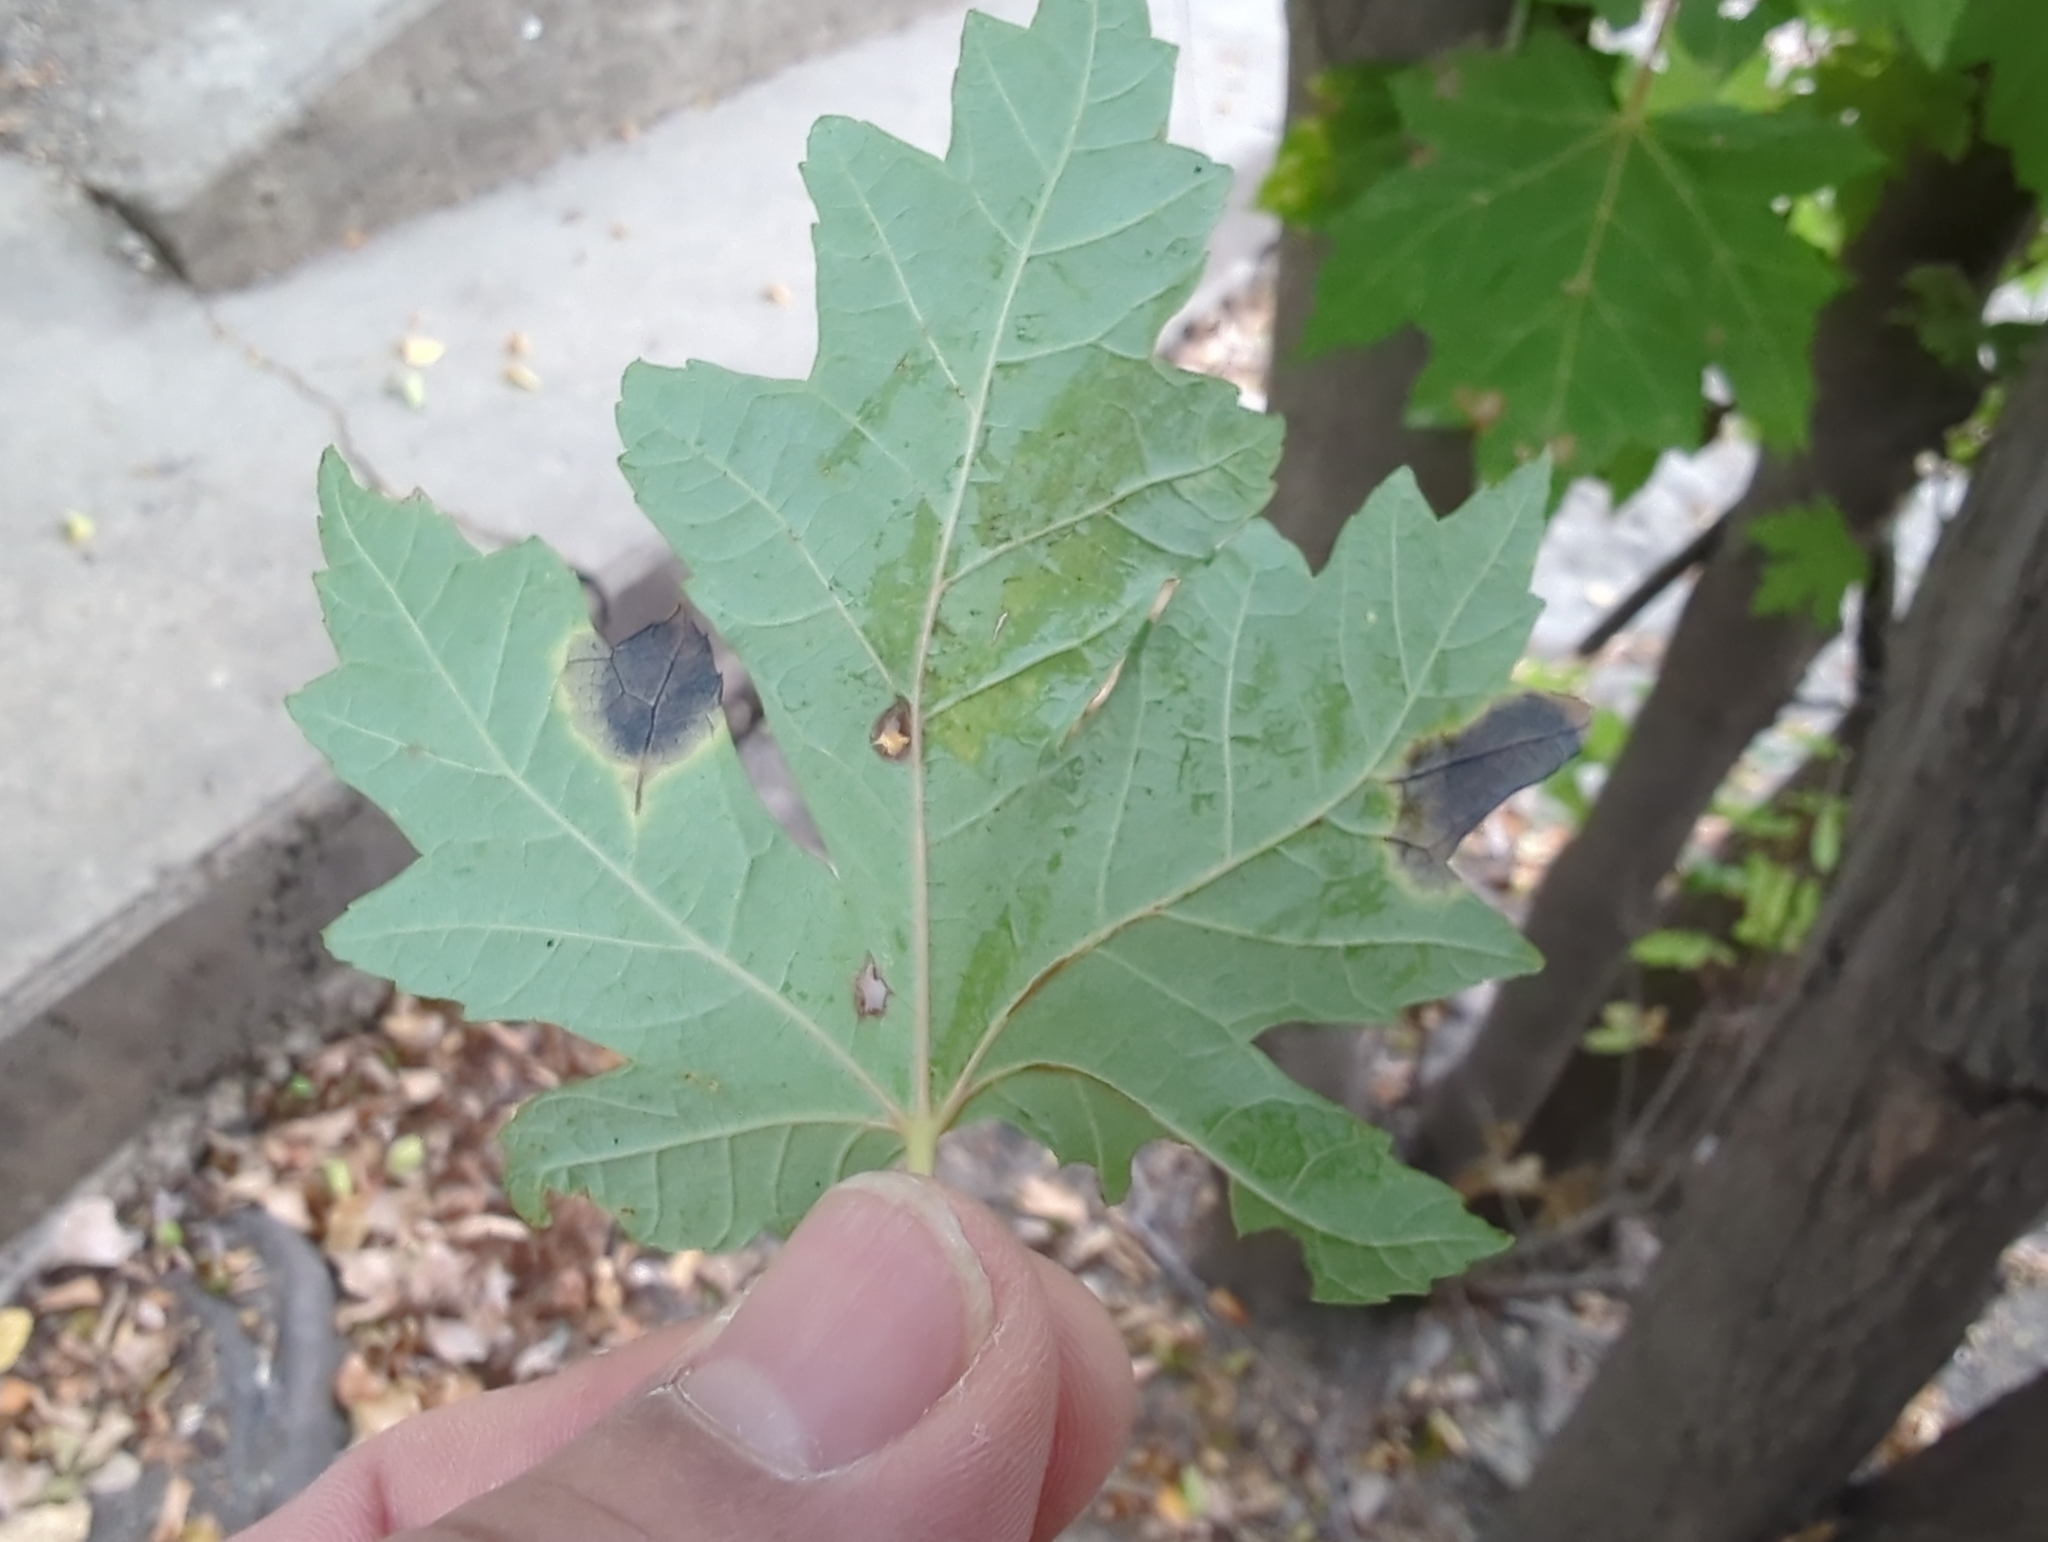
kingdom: Fungi
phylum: Ascomycota
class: Leotiomycetes
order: Rhytismatales
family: Rhytismataceae
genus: Rhytisma
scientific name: Rhytisma americanum
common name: American tar spot
